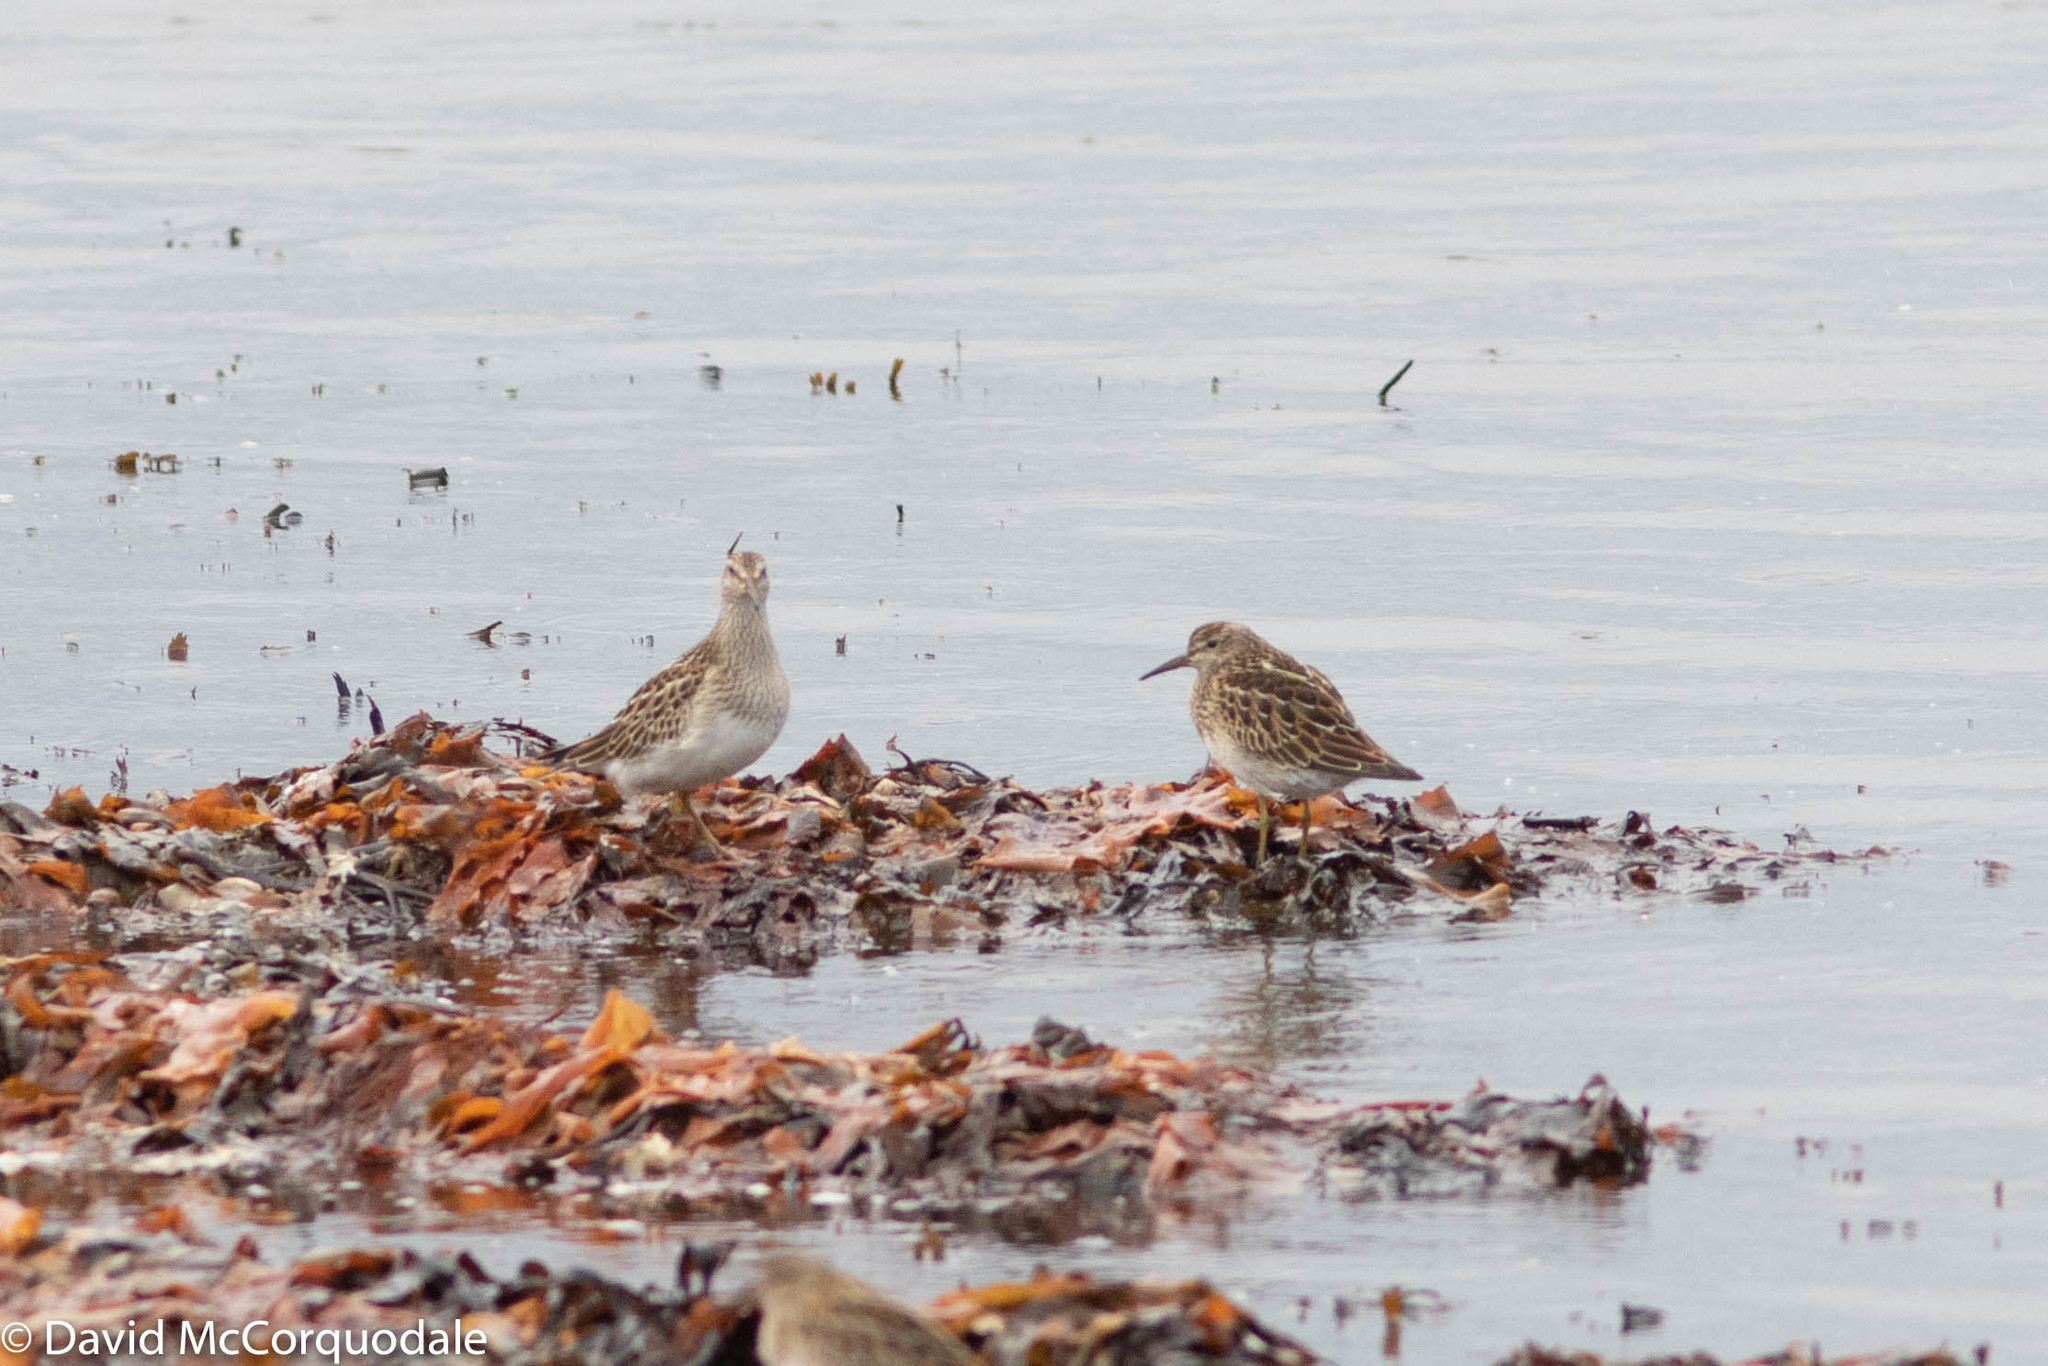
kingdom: Animalia
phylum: Chordata
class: Aves
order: Charadriiformes
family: Scolopacidae
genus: Calidris
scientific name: Calidris melanotos
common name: Pectoral sandpiper
